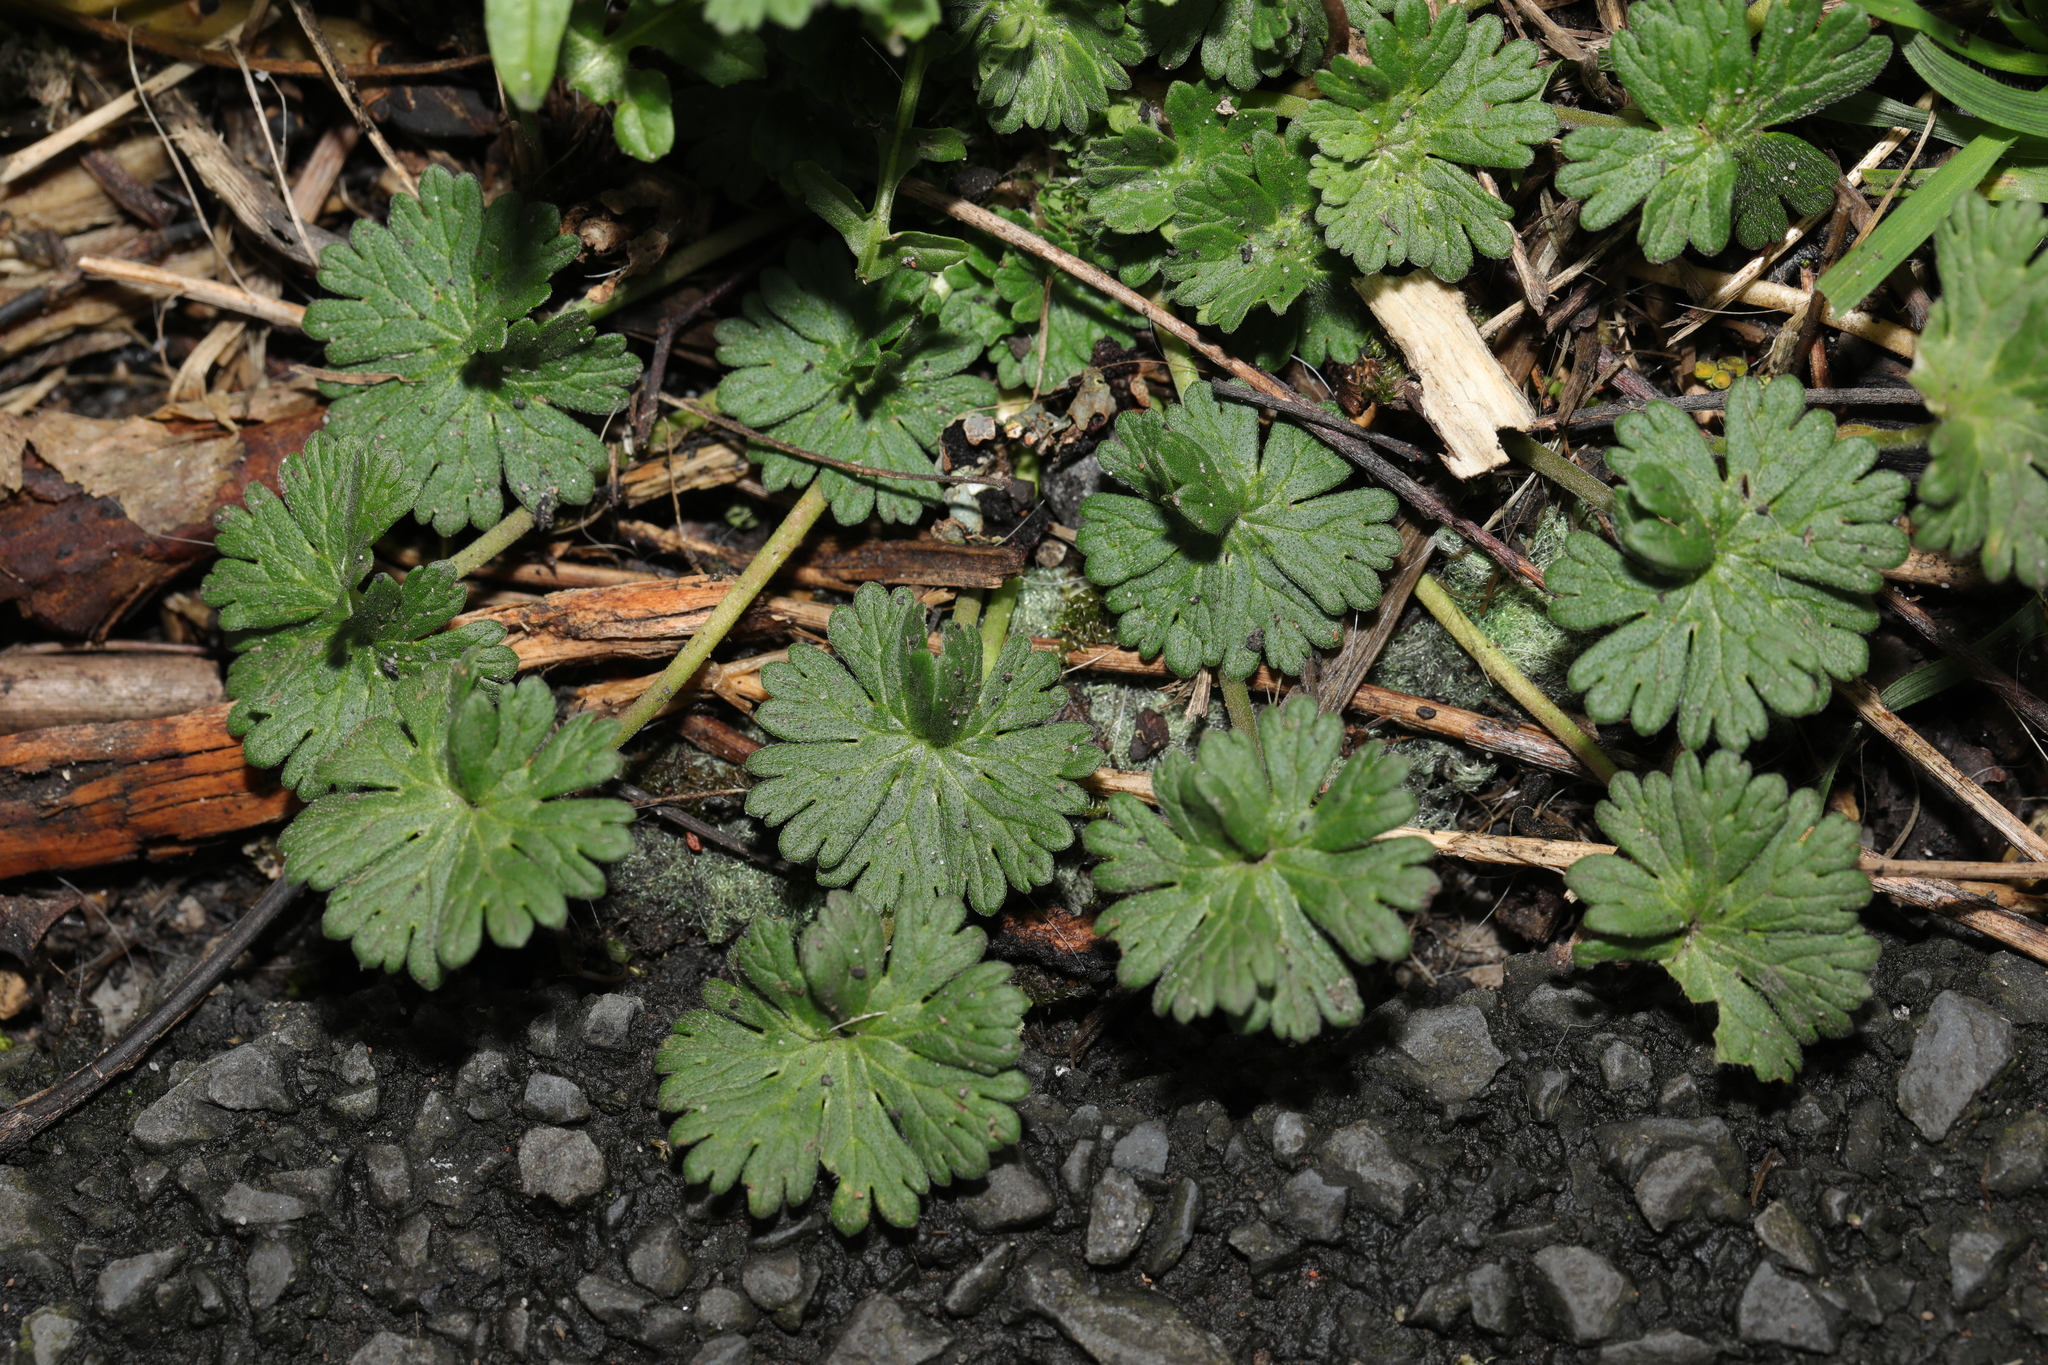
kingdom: Plantae
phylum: Tracheophyta
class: Magnoliopsida
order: Geraniales
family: Geraniaceae
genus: Geranium
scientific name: Geranium molle
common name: Dove's-foot crane's-bill
